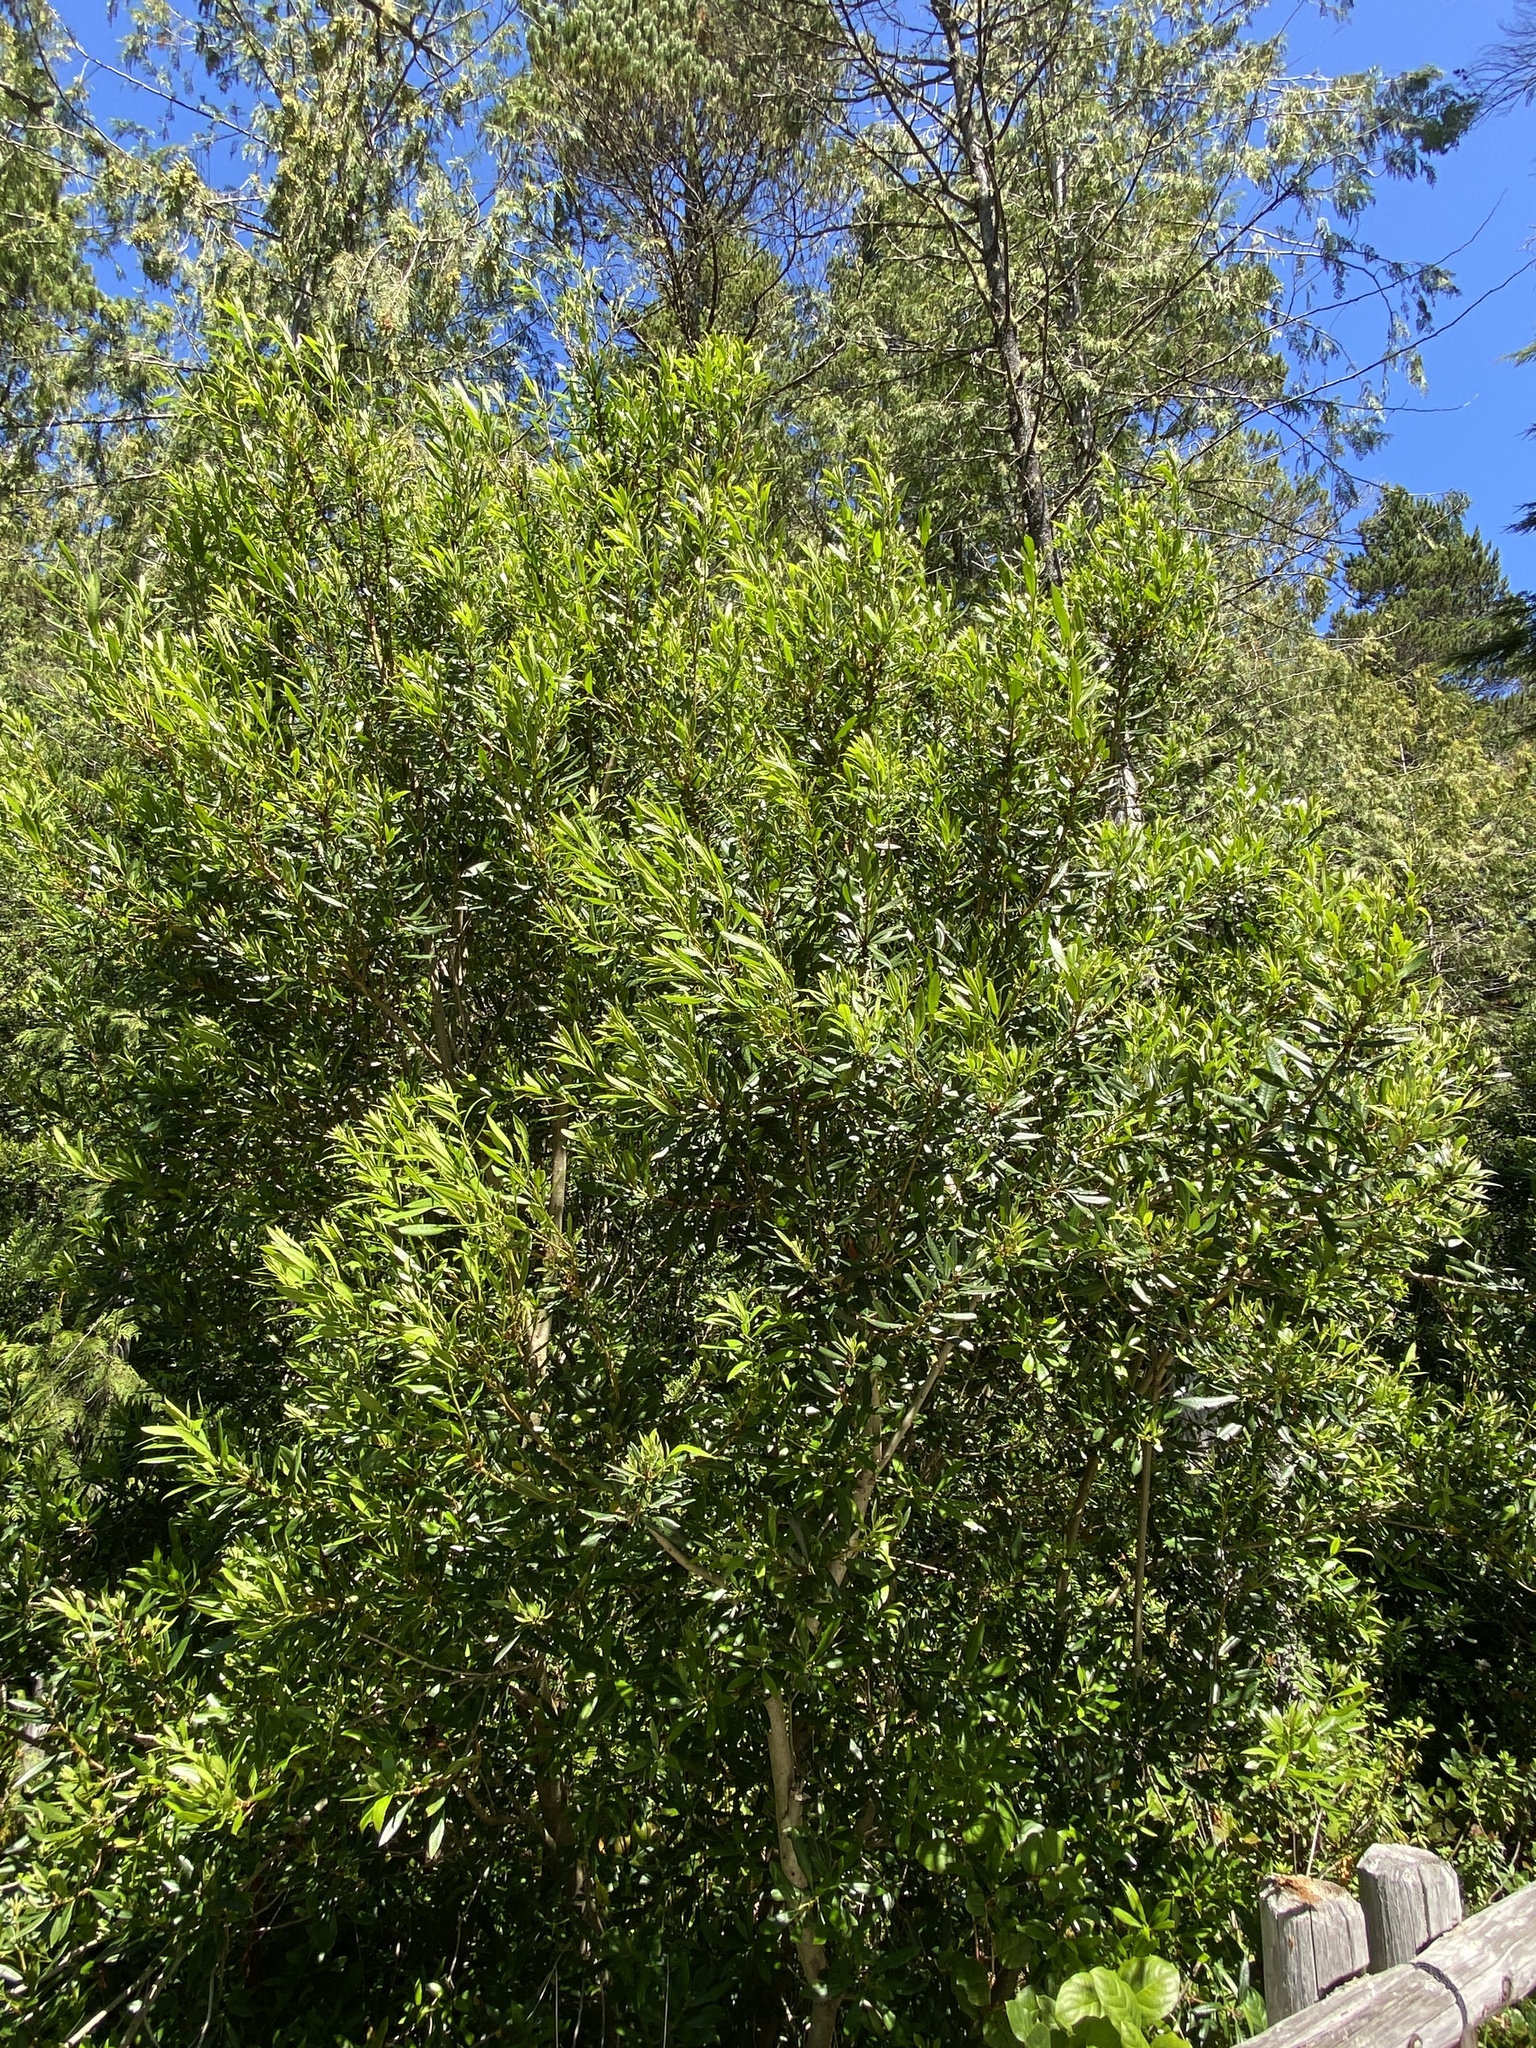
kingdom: Plantae
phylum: Tracheophyta
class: Magnoliopsida
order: Fagales
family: Myricaceae
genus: Morella
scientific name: Morella californica
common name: California wax-myrtle
